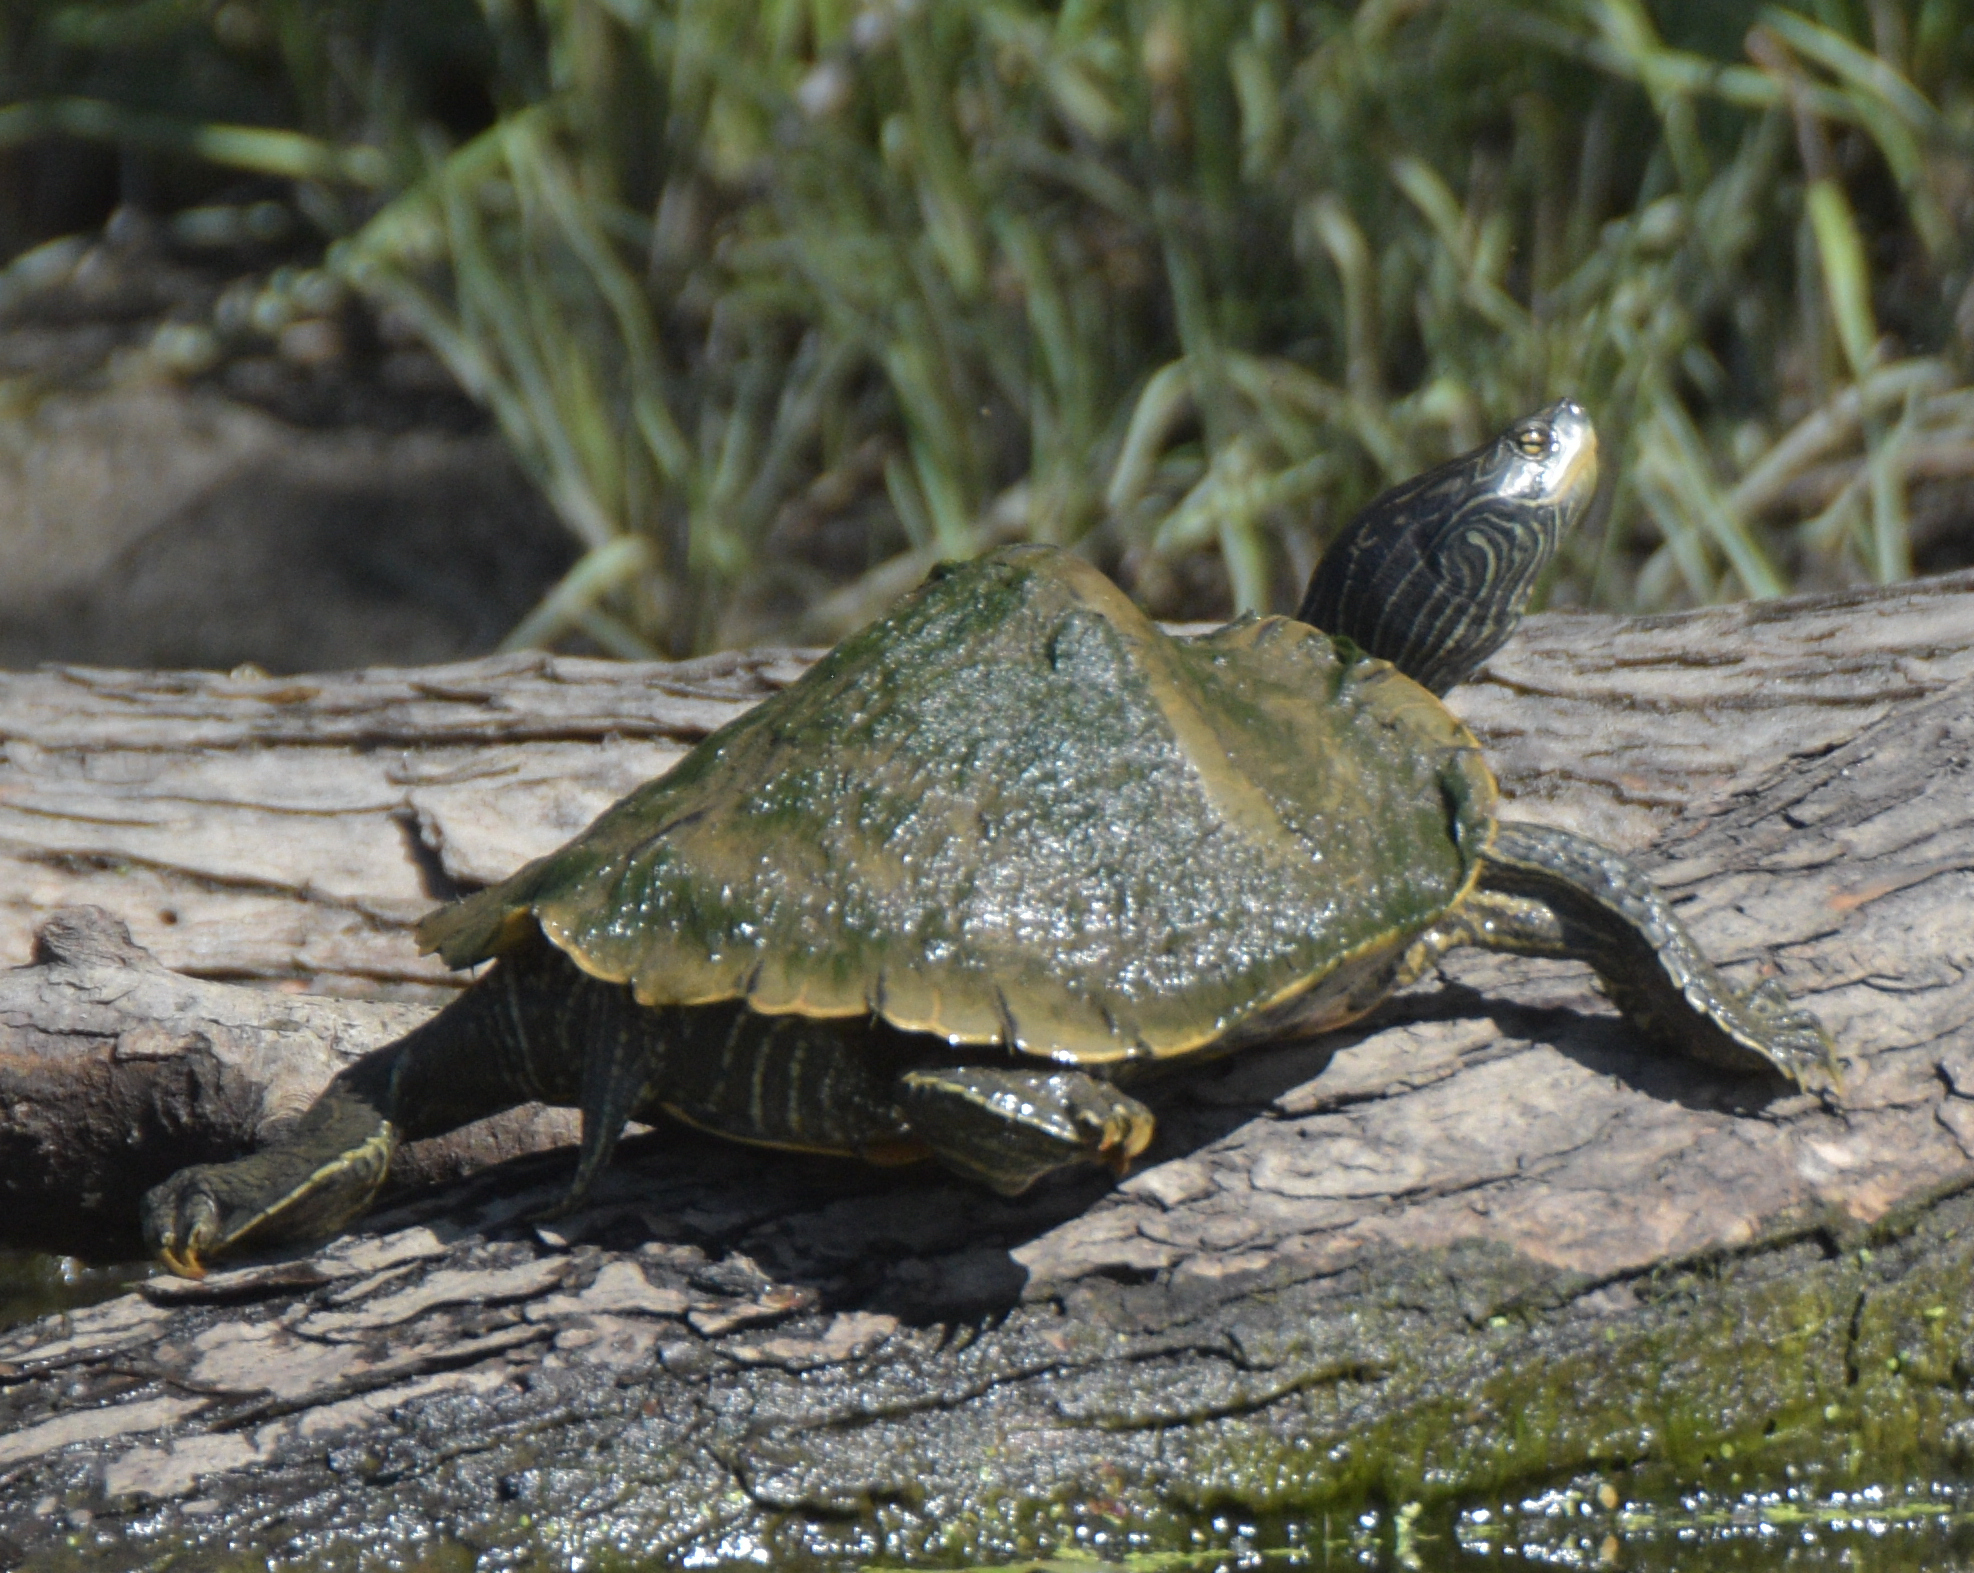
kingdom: Animalia
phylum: Chordata
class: Testudines
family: Emydidae
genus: Graptemys
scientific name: Graptemys geographica
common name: Common map turtle
